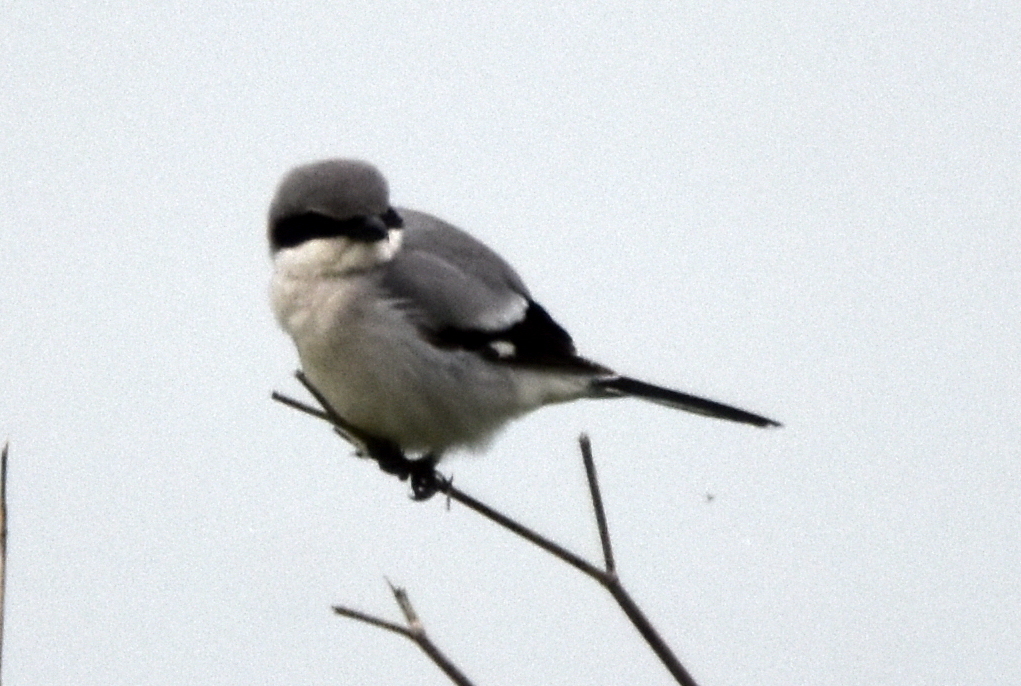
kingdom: Animalia
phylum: Chordata
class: Aves
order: Passeriformes
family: Laniidae
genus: Lanius
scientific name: Lanius ludovicianus
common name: Loggerhead shrike
